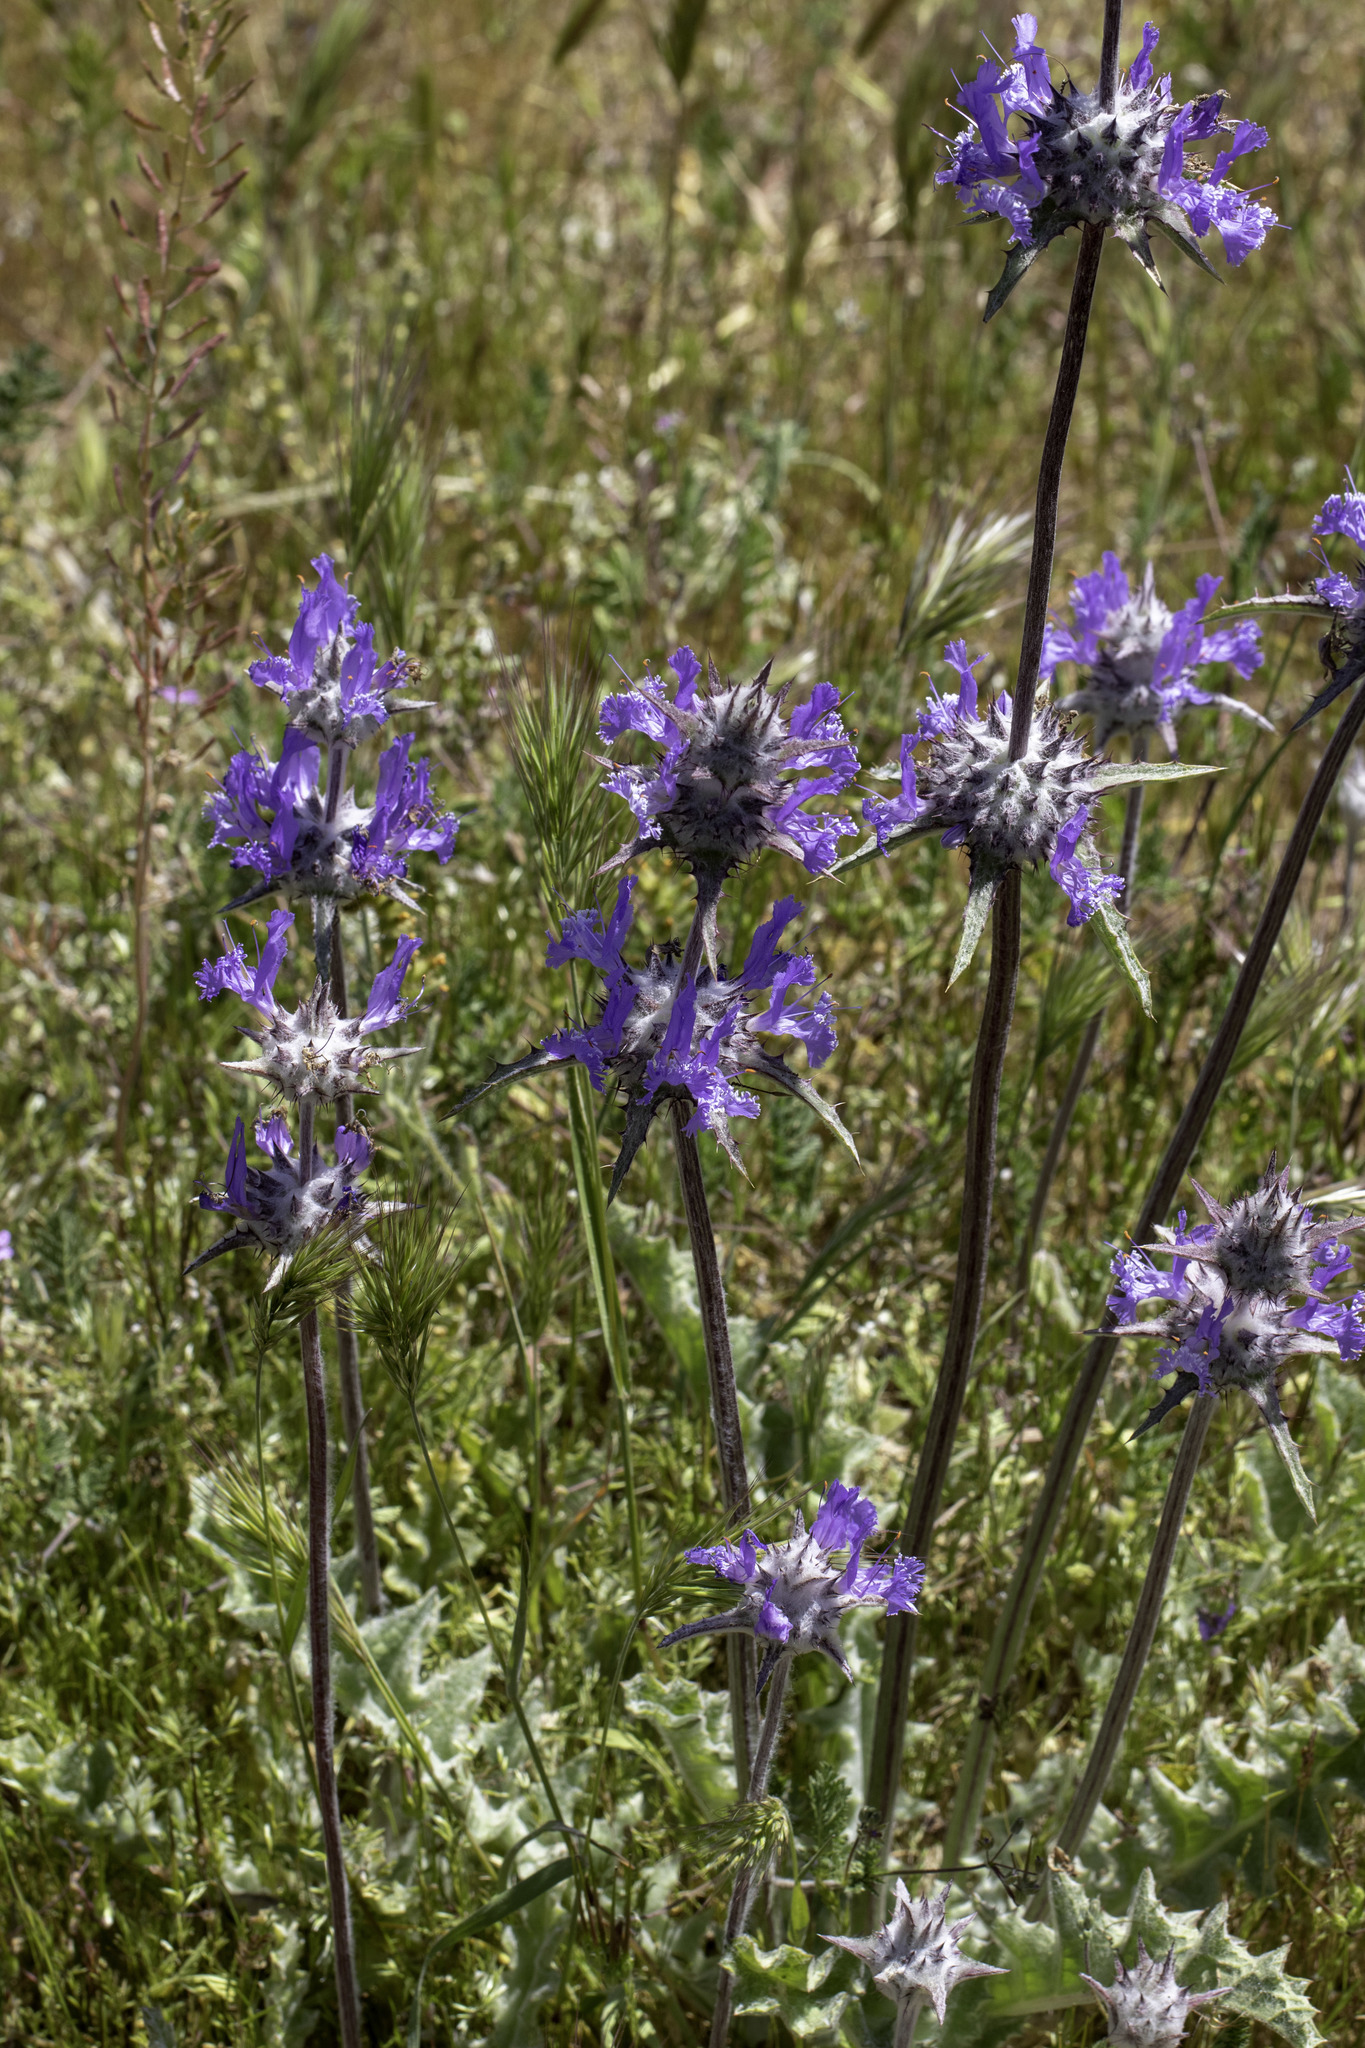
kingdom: Plantae
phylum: Tracheophyta
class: Magnoliopsida
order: Lamiales
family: Lamiaceae
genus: Salvia
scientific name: Salvia carduacea
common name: Thistle sage
